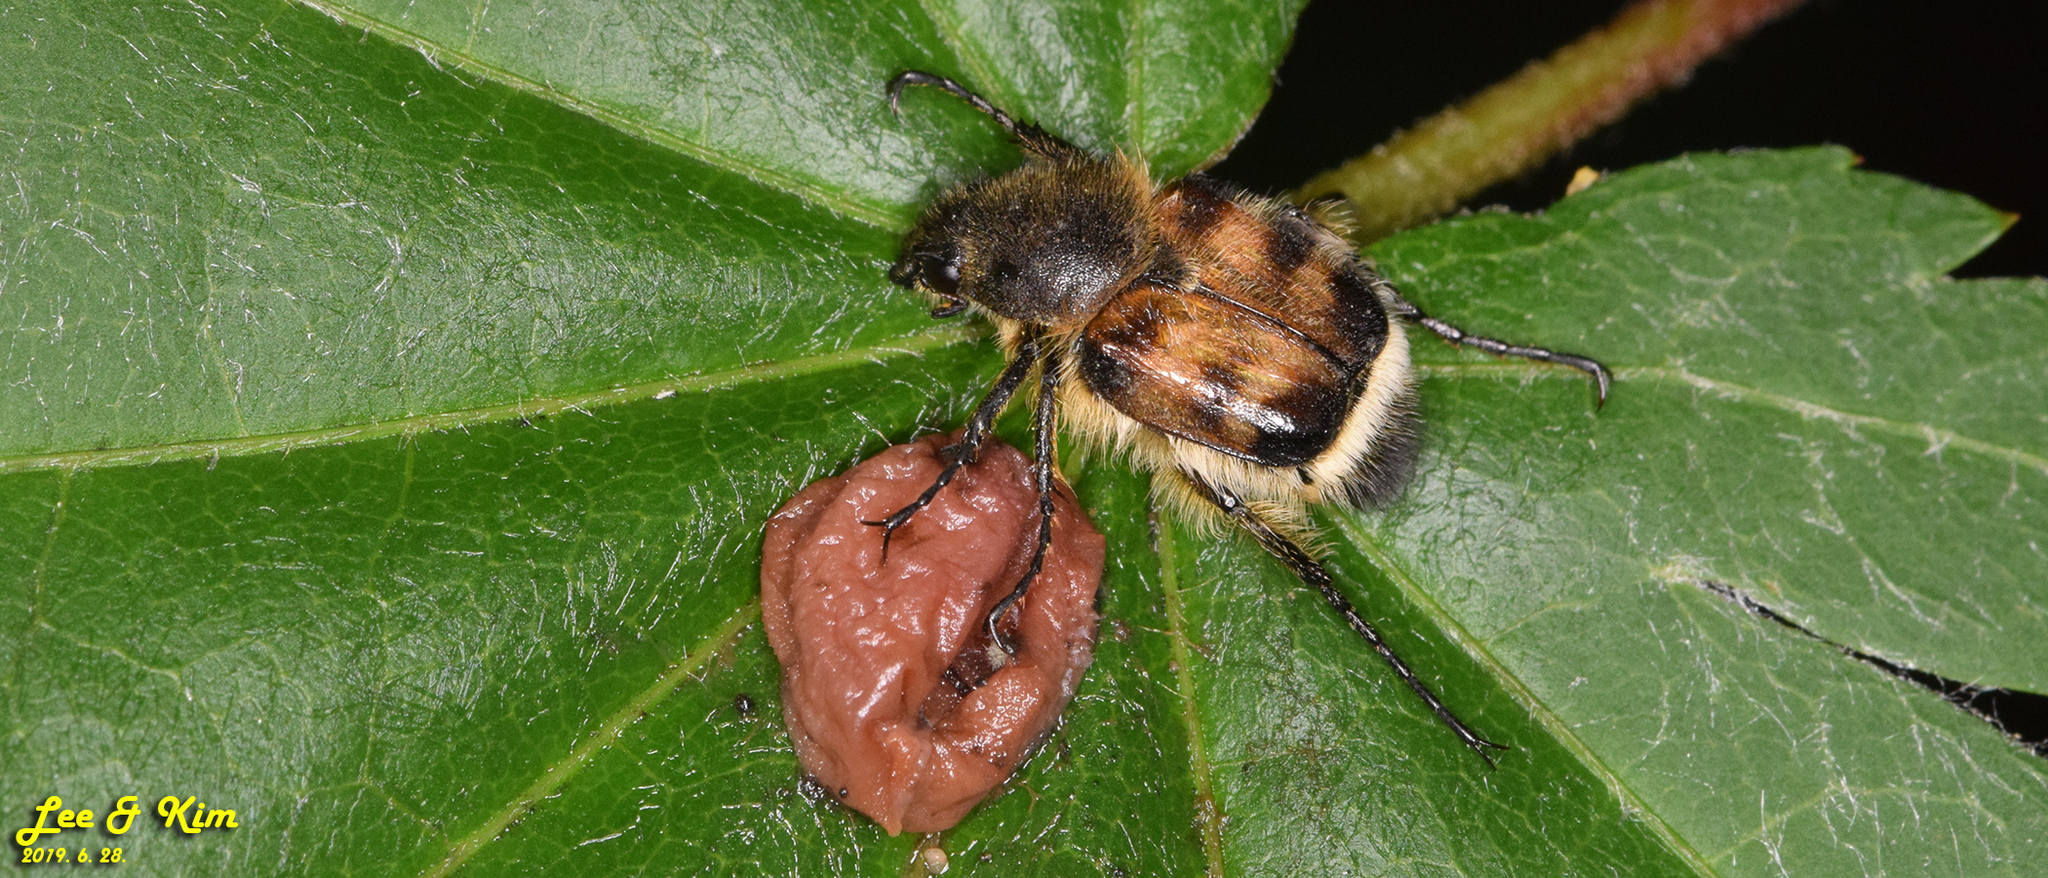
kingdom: Animalia
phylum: Arthropoda
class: Insecta
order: Coleoptera
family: Scarabaeidae
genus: Lasiotrichius
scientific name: Lasiotrichius succinctus
